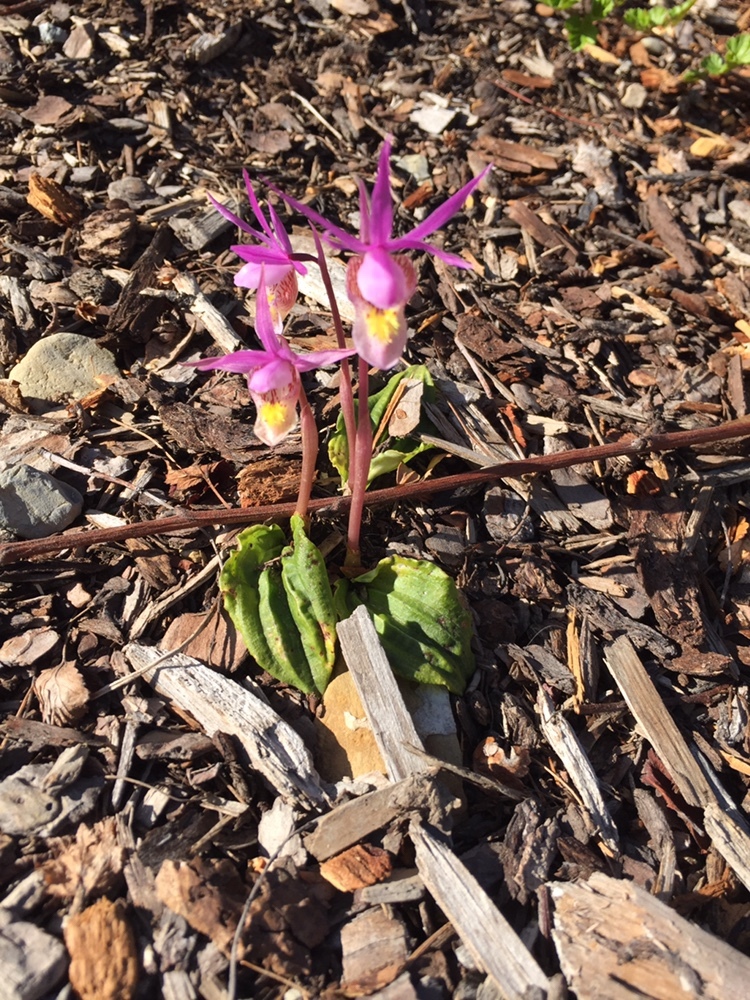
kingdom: Plantae
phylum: Tracheophyta
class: Liliopsida
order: Asparagales
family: Orchidaceae
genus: Calypso
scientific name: Calypso bulbosa
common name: Calypso
